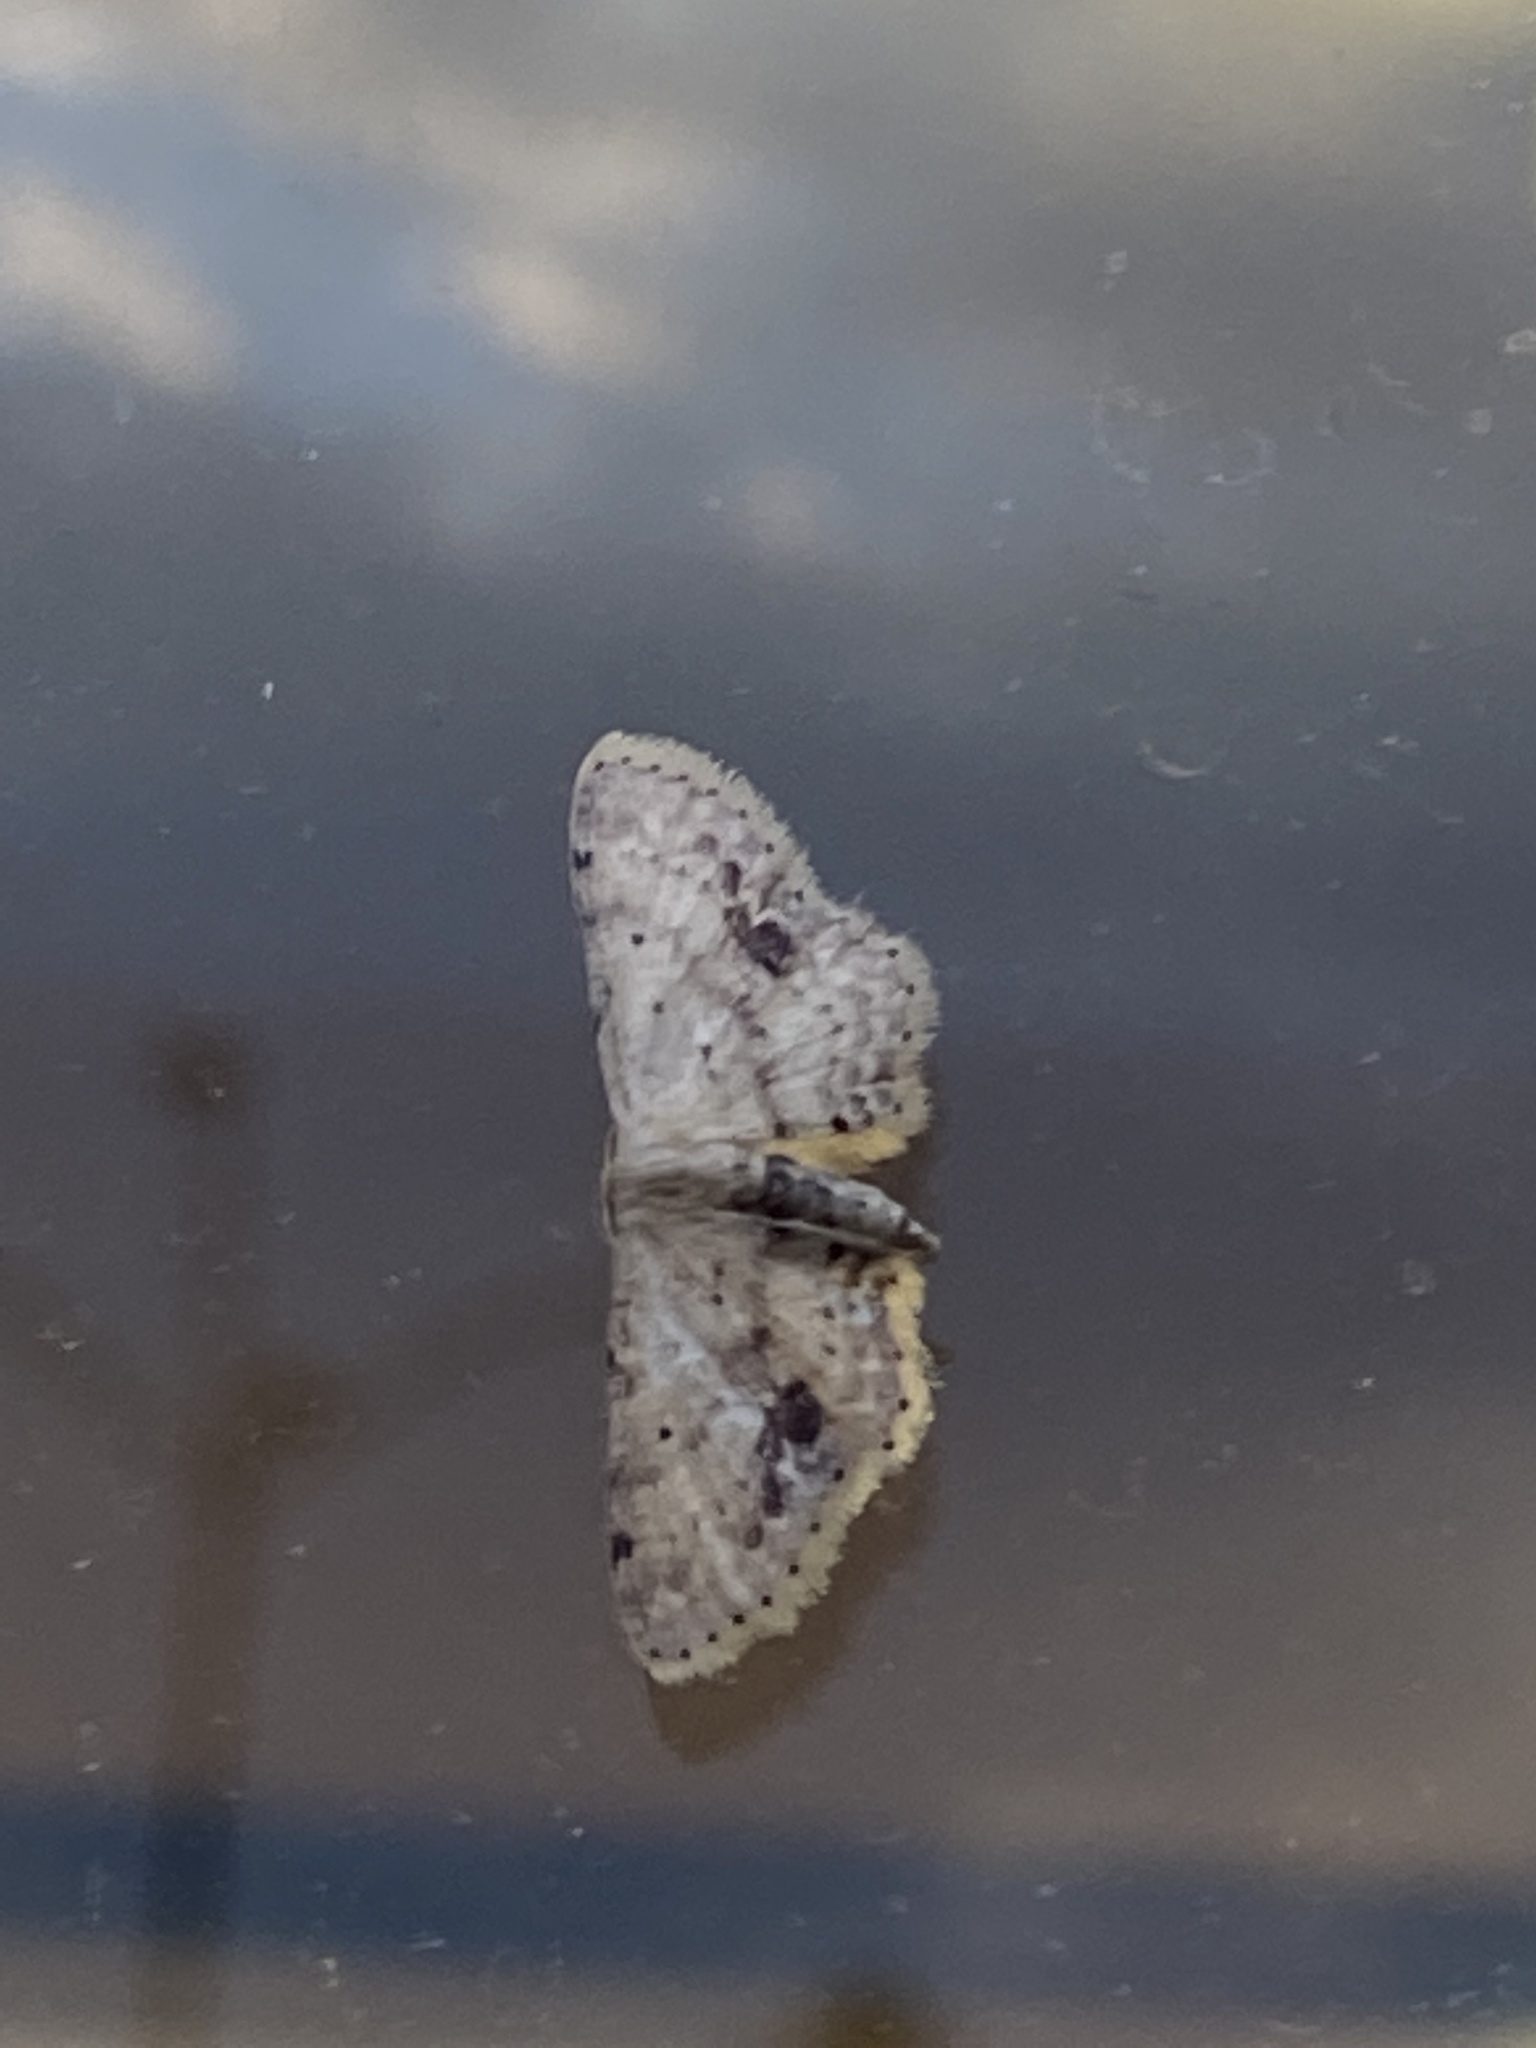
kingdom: Animalia
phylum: Arthropoda
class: Insecta
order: Lepidoptera
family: Geometridae
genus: Idaea
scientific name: Idaea dimidiata
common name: Single-dotted wave
